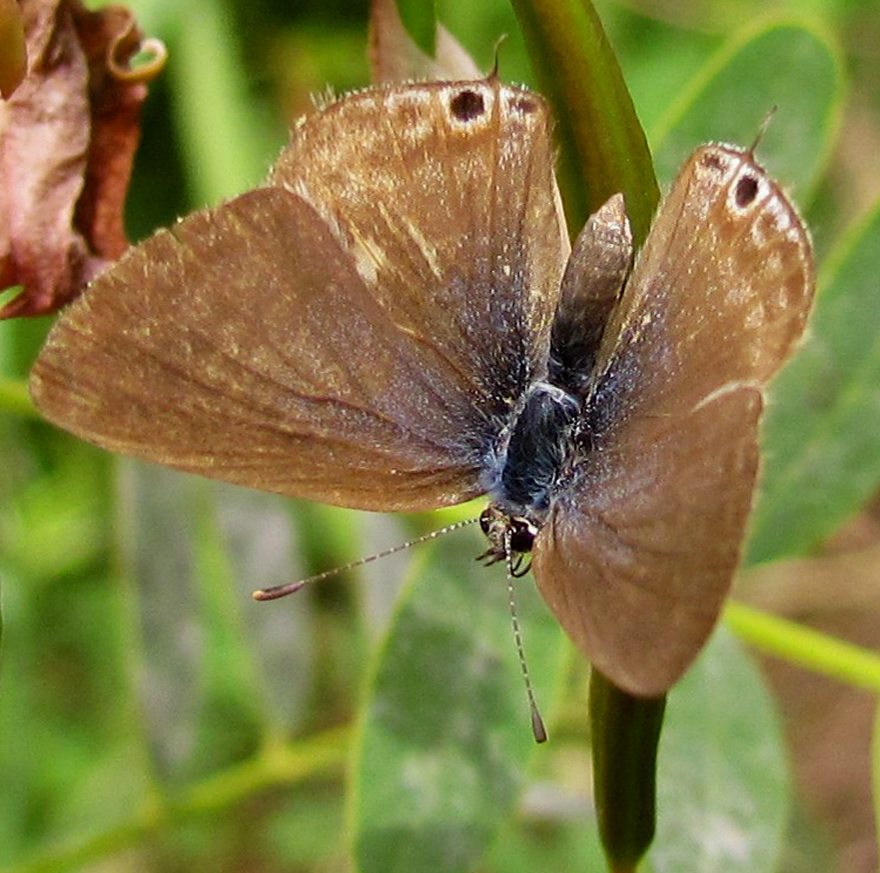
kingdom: Animalia
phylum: Arthropoda
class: Insecta
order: Lepidoptera
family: Lycaenidae
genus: Lampides
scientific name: Lampides boeticus
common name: Long-tailed blue
